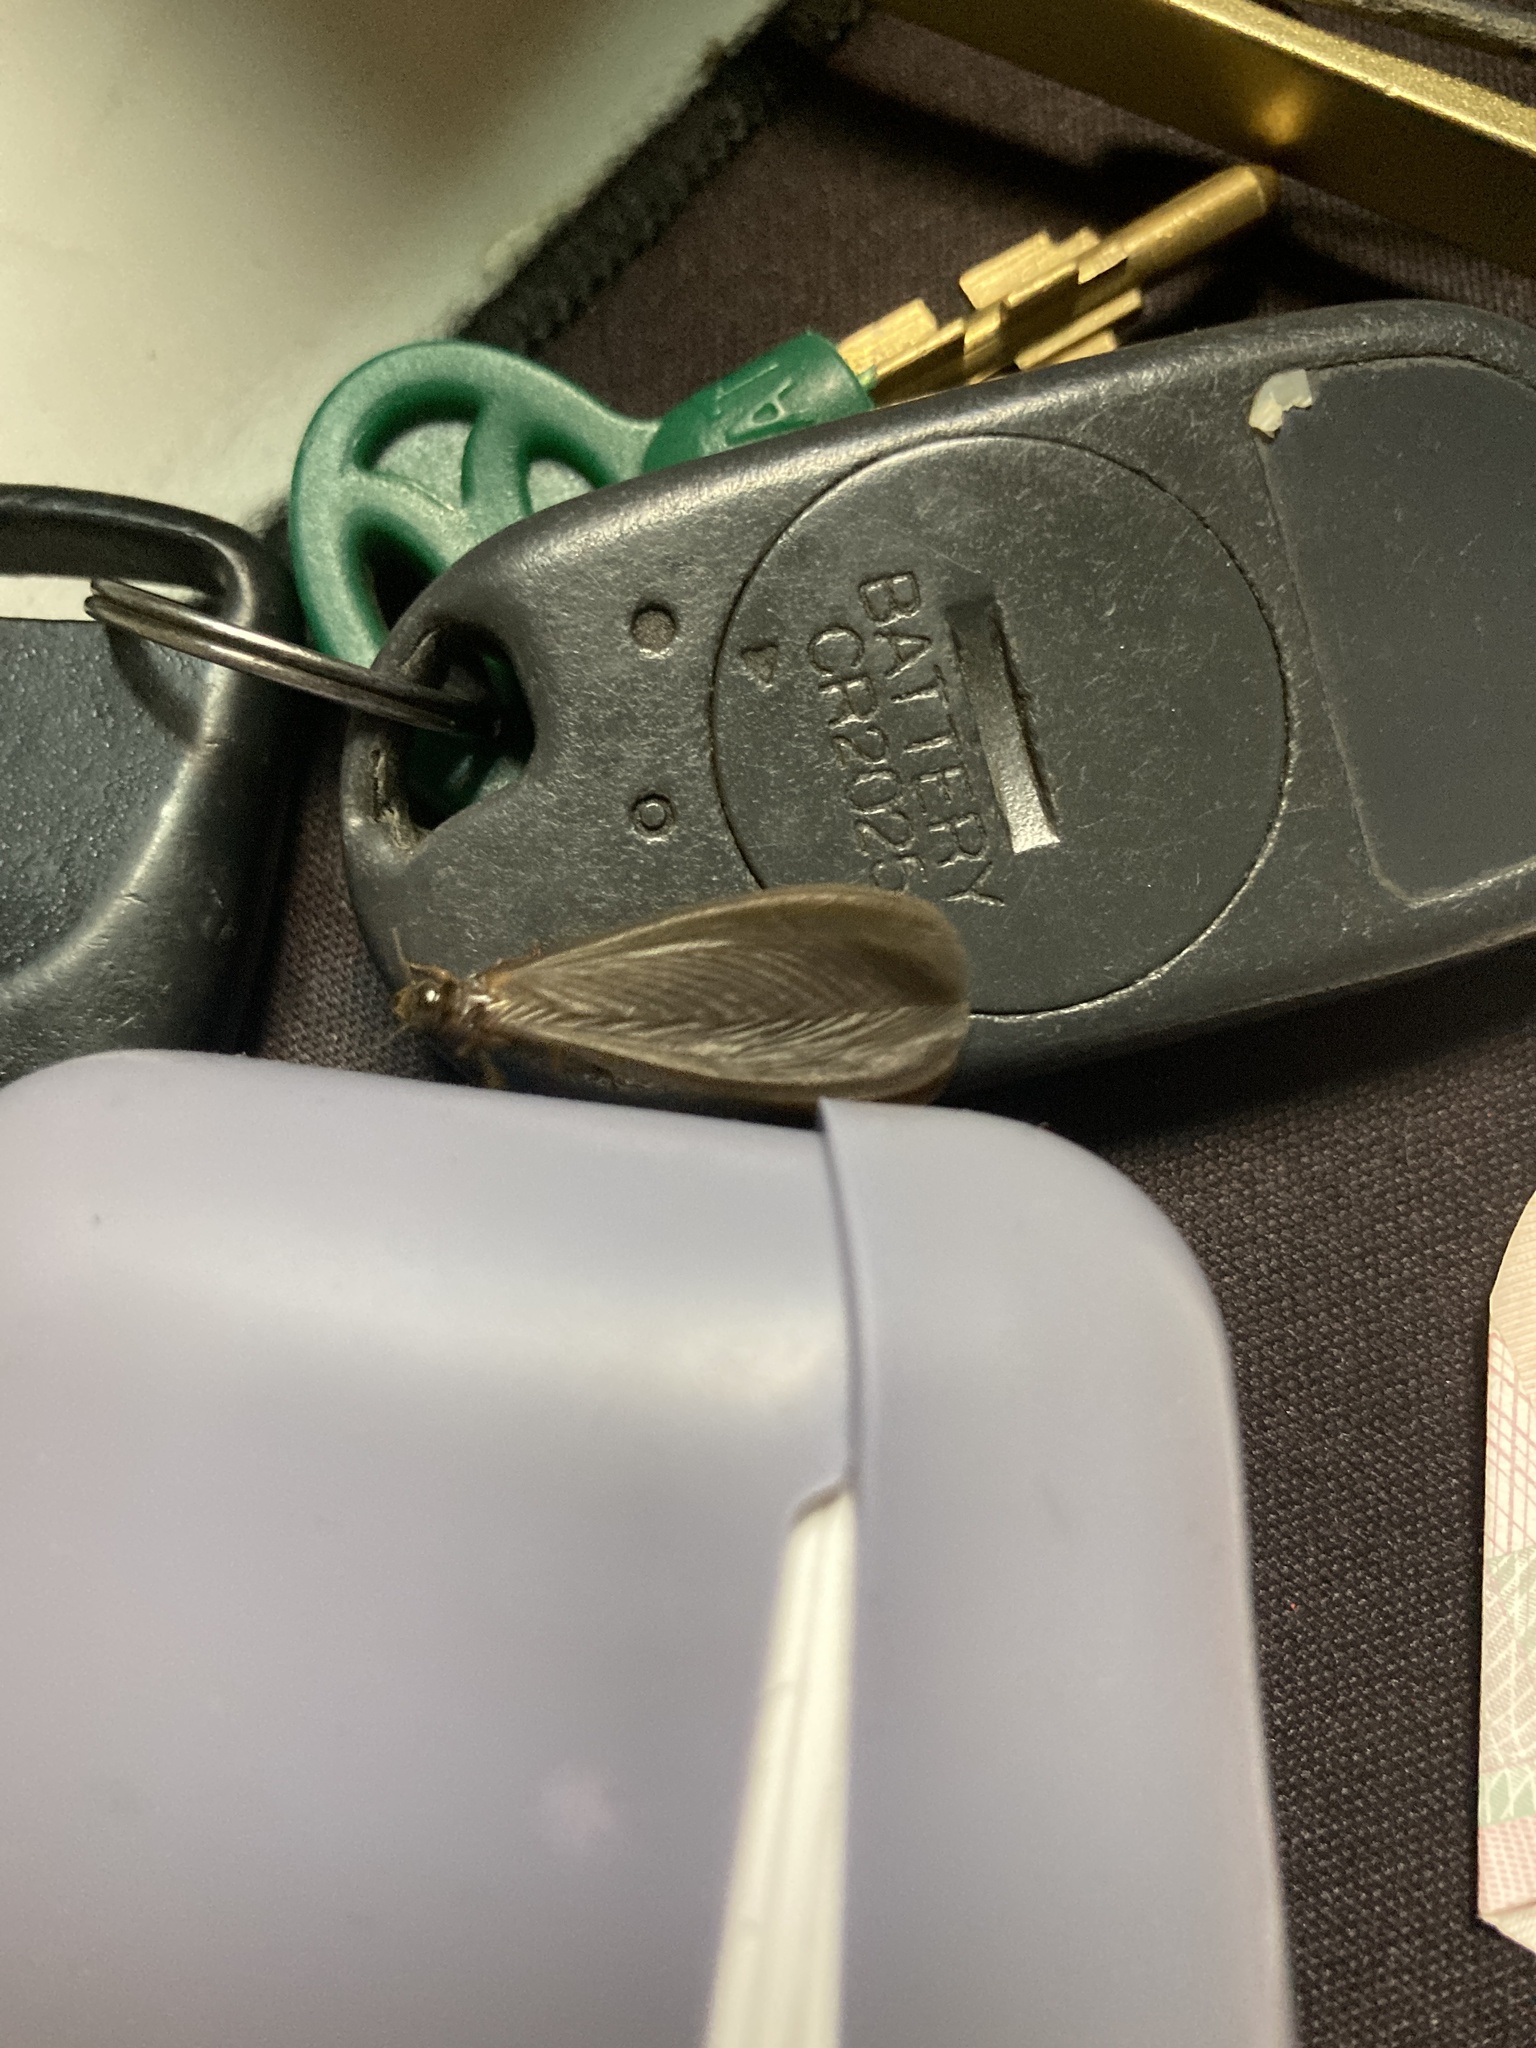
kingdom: Animalia
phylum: Arthropoda
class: Insecta
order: Blattodea
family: Termitidae
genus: Odontotermes
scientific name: Odontotermes formosanus
